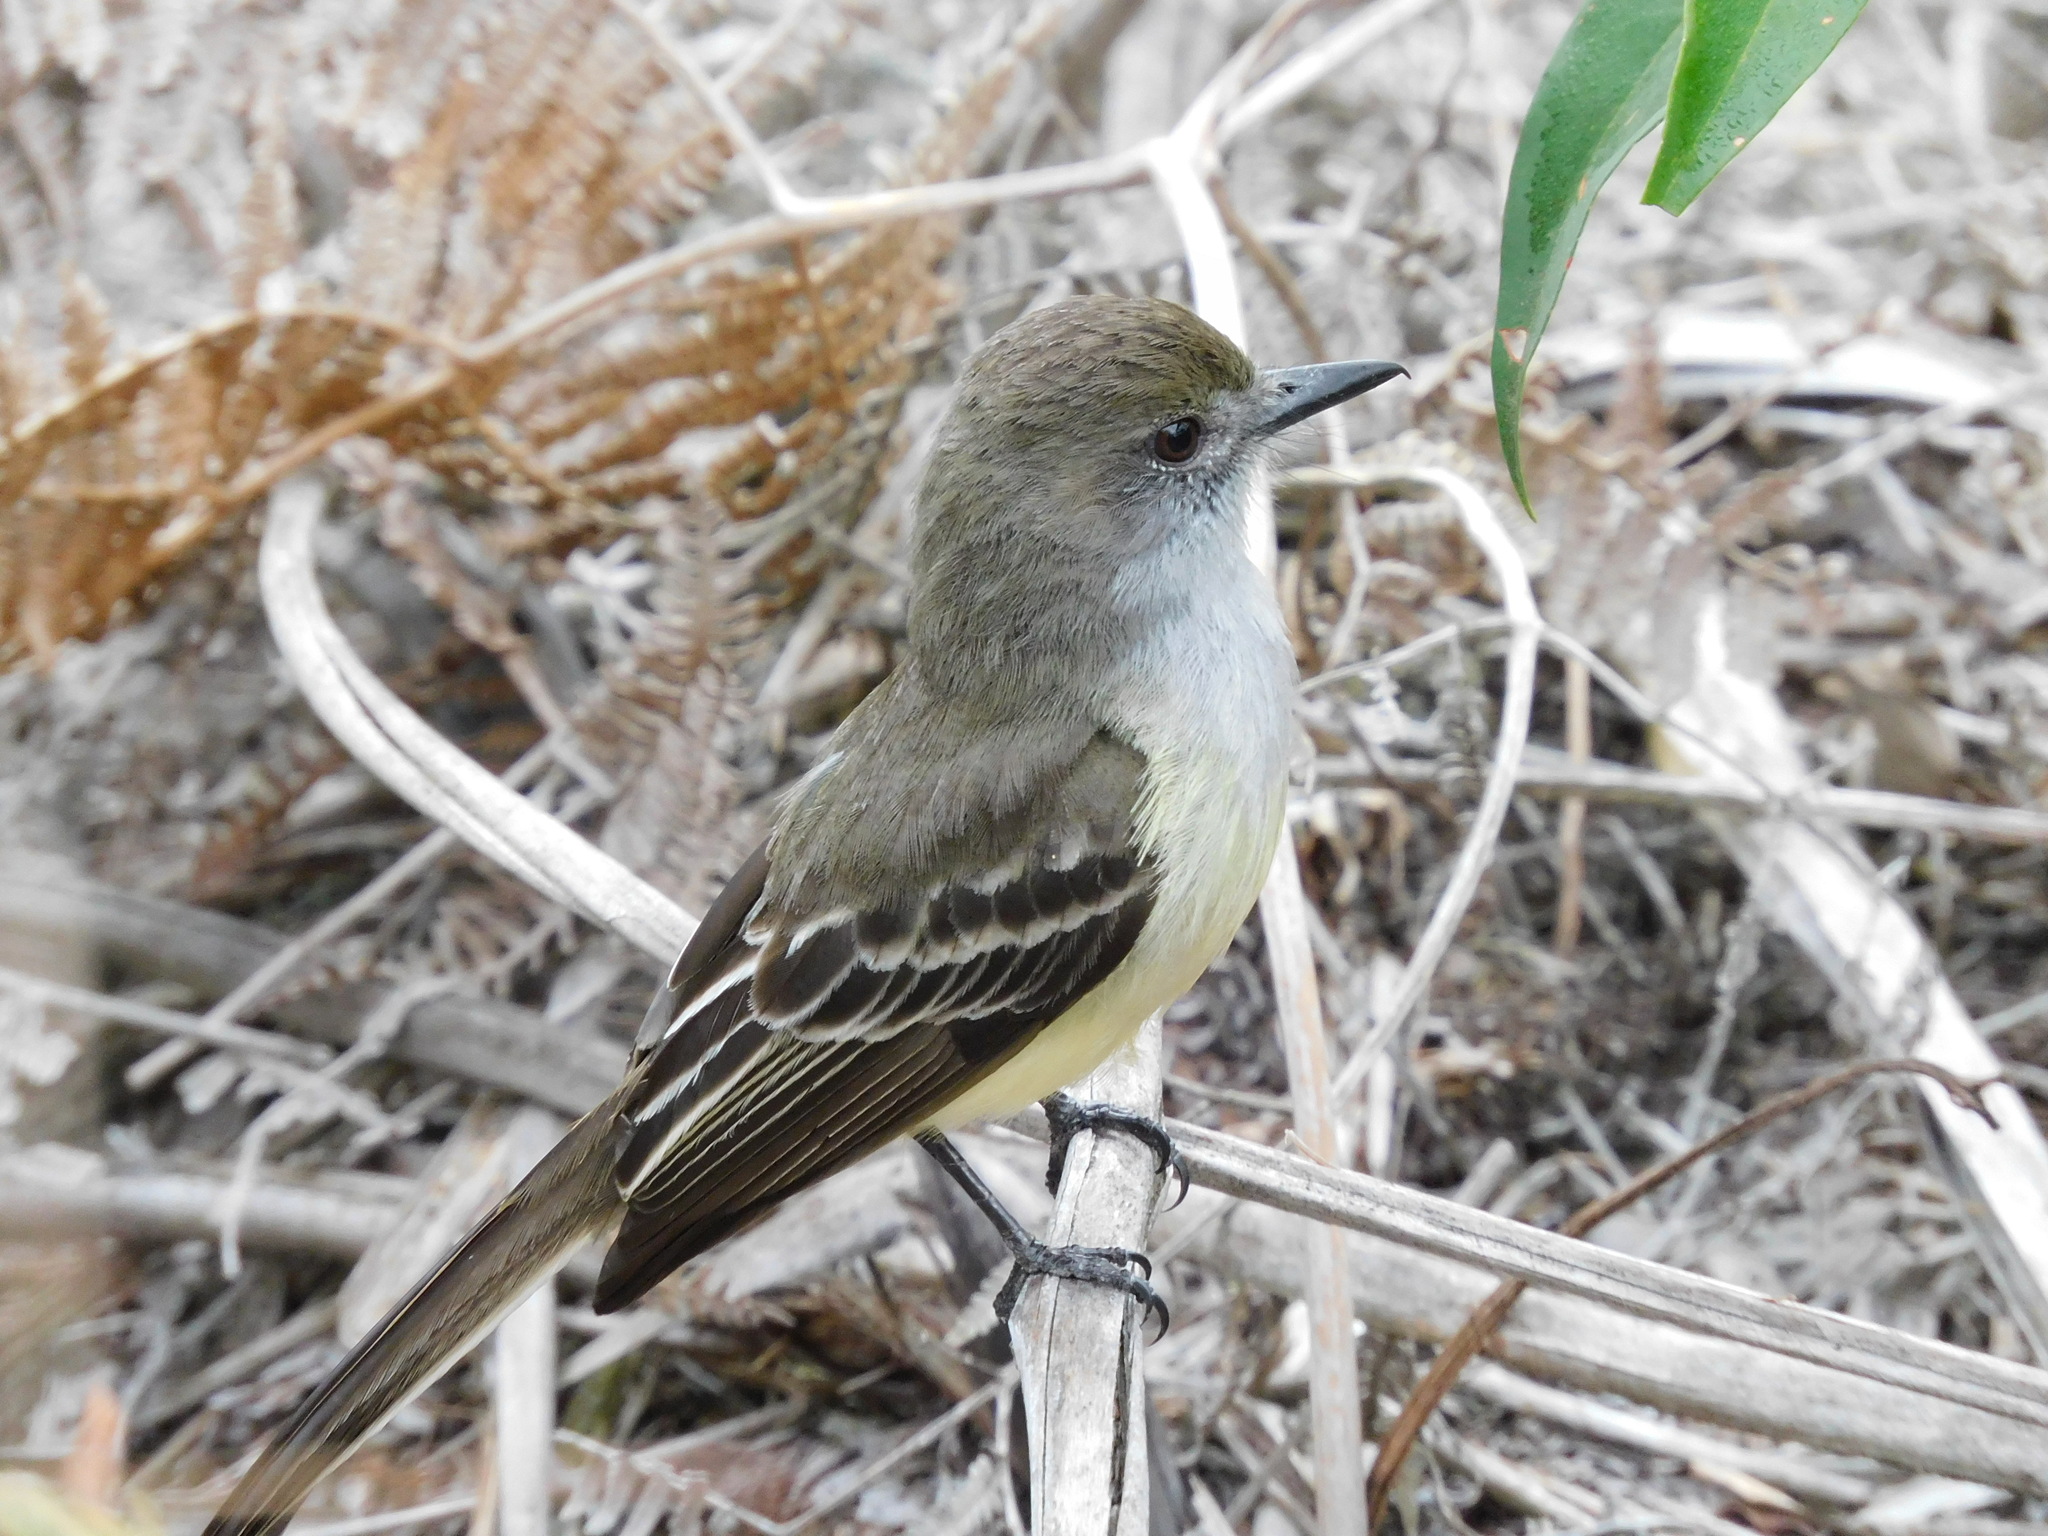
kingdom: Animalia
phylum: Chordata
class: Aves
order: Passeriformes
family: Tyrannidae
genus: Myiarchus
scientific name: Myiarchus cephalotes
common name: Pale-edged flycatcher
